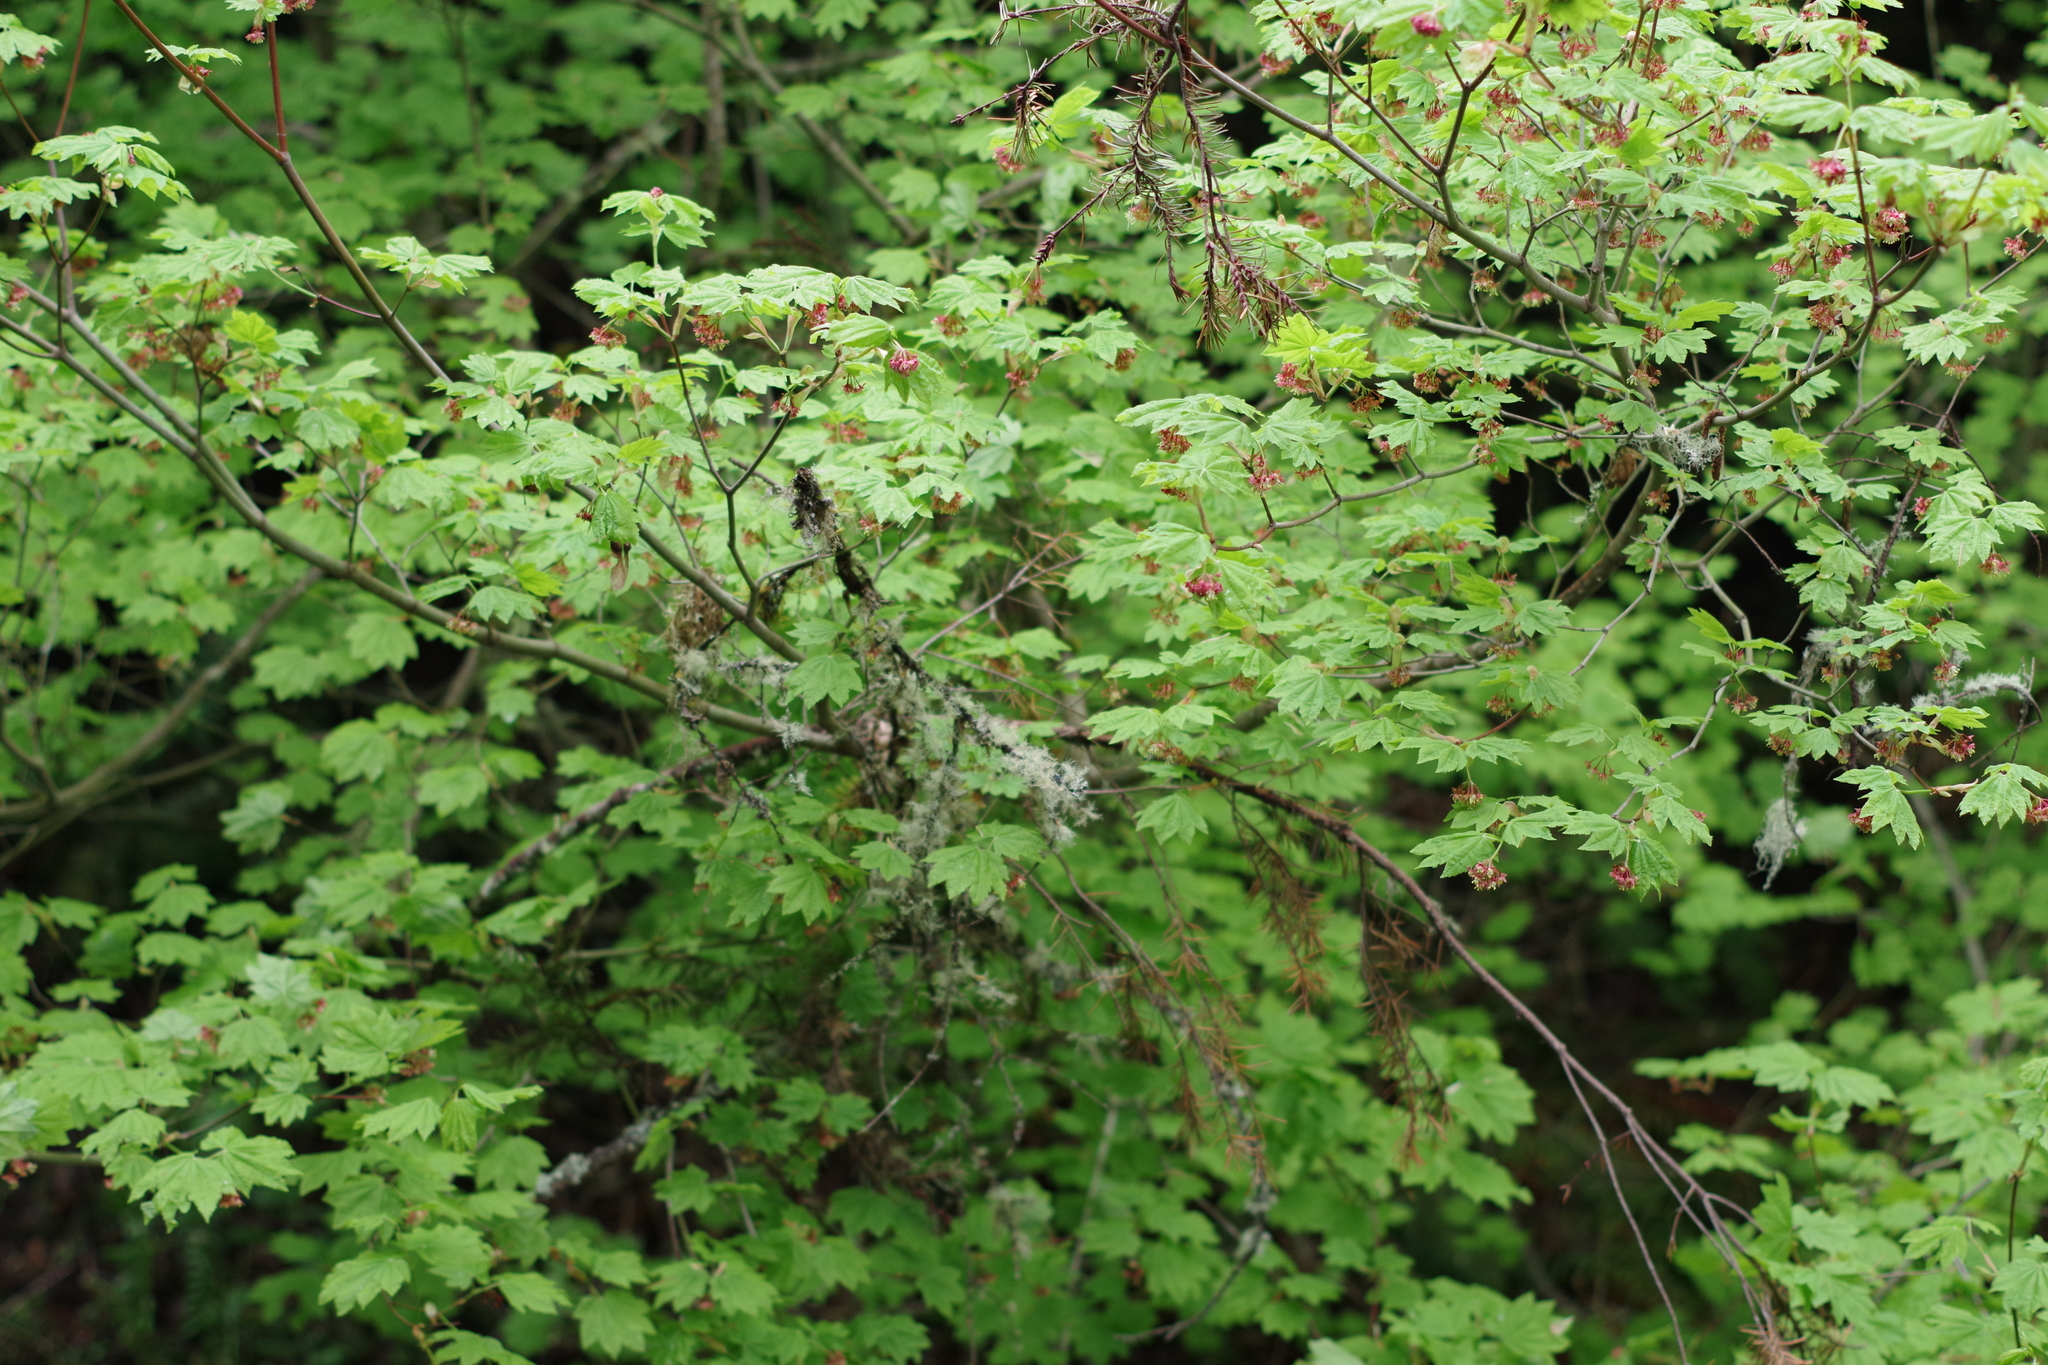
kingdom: Plantae
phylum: Tracheophyta
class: Magnoliopsida
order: Sapindales
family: Sapindaceae
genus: Acer
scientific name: Acer circinatum
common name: Vine maple
